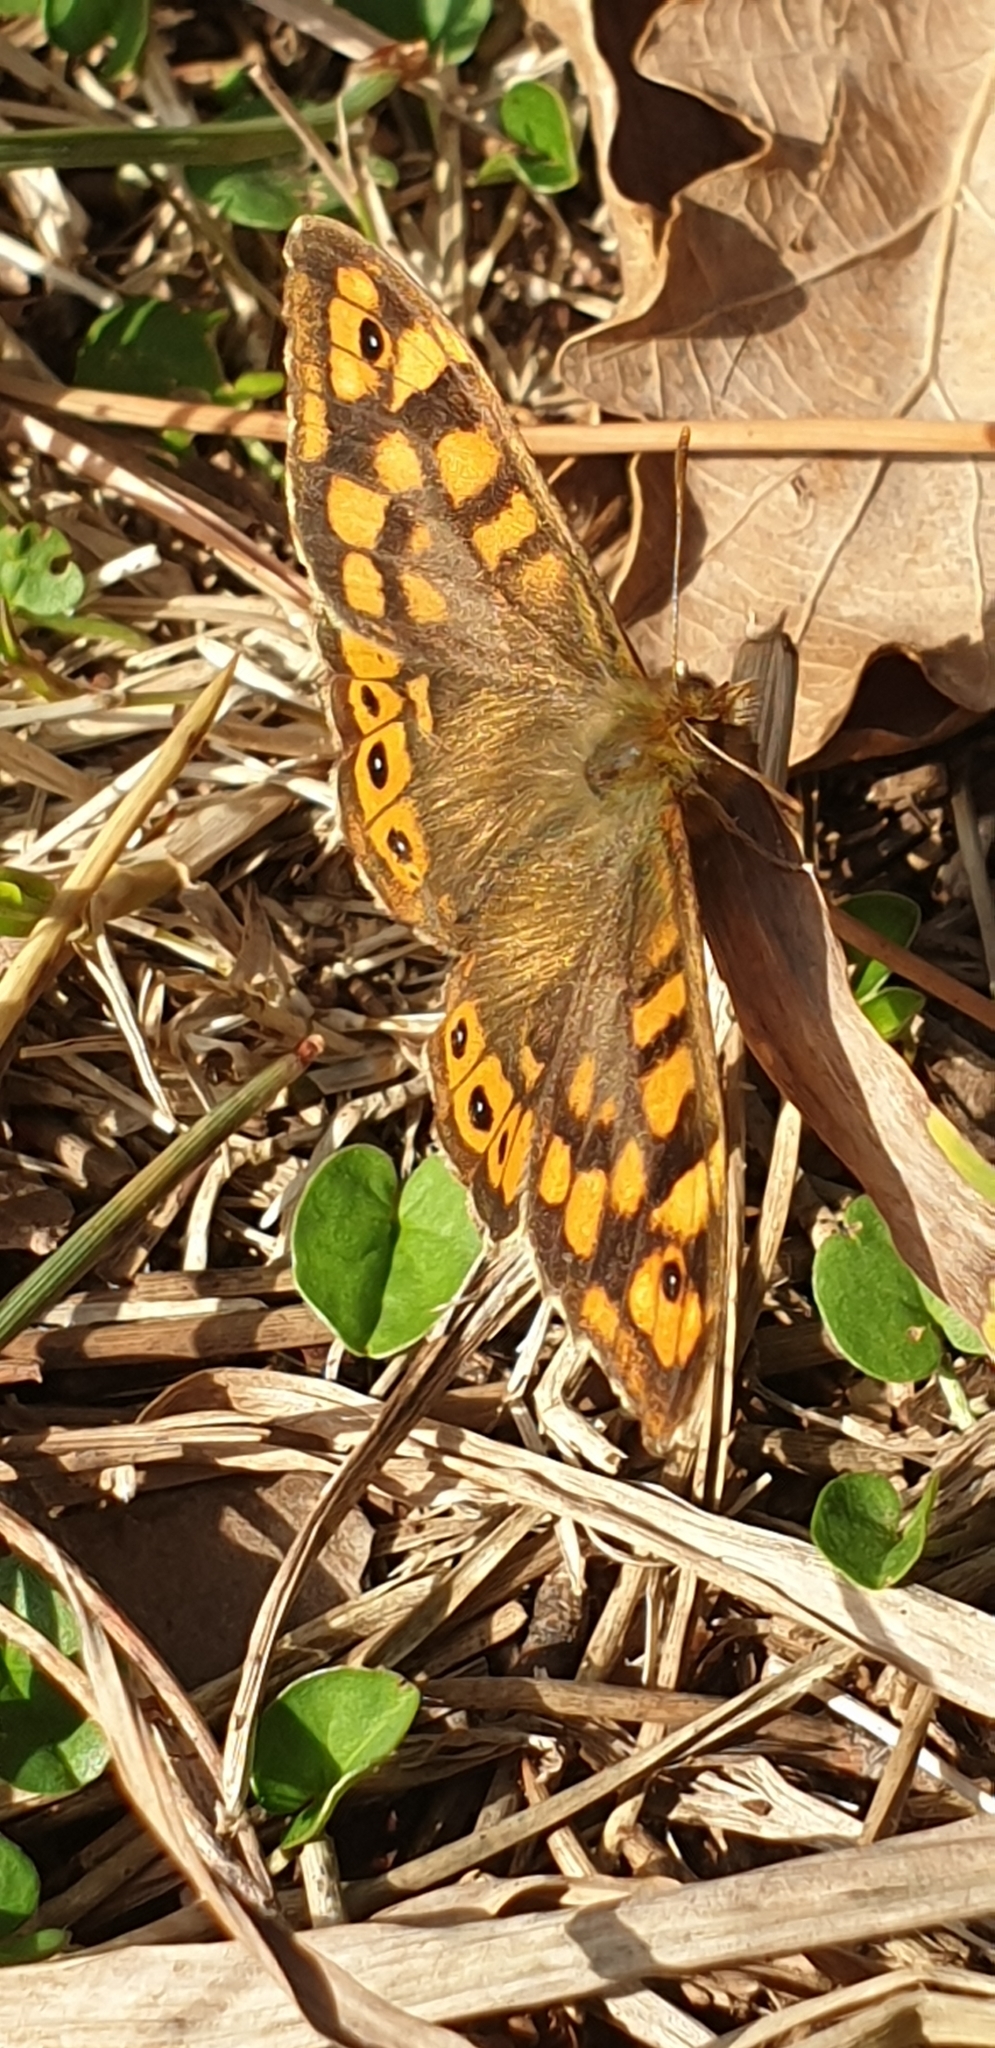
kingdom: Animalia
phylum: Arthropoda
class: Insecta
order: Lepidoptera
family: Nymphalidae
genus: Pararge
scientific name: Pararge aegeria
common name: Speckled wood
